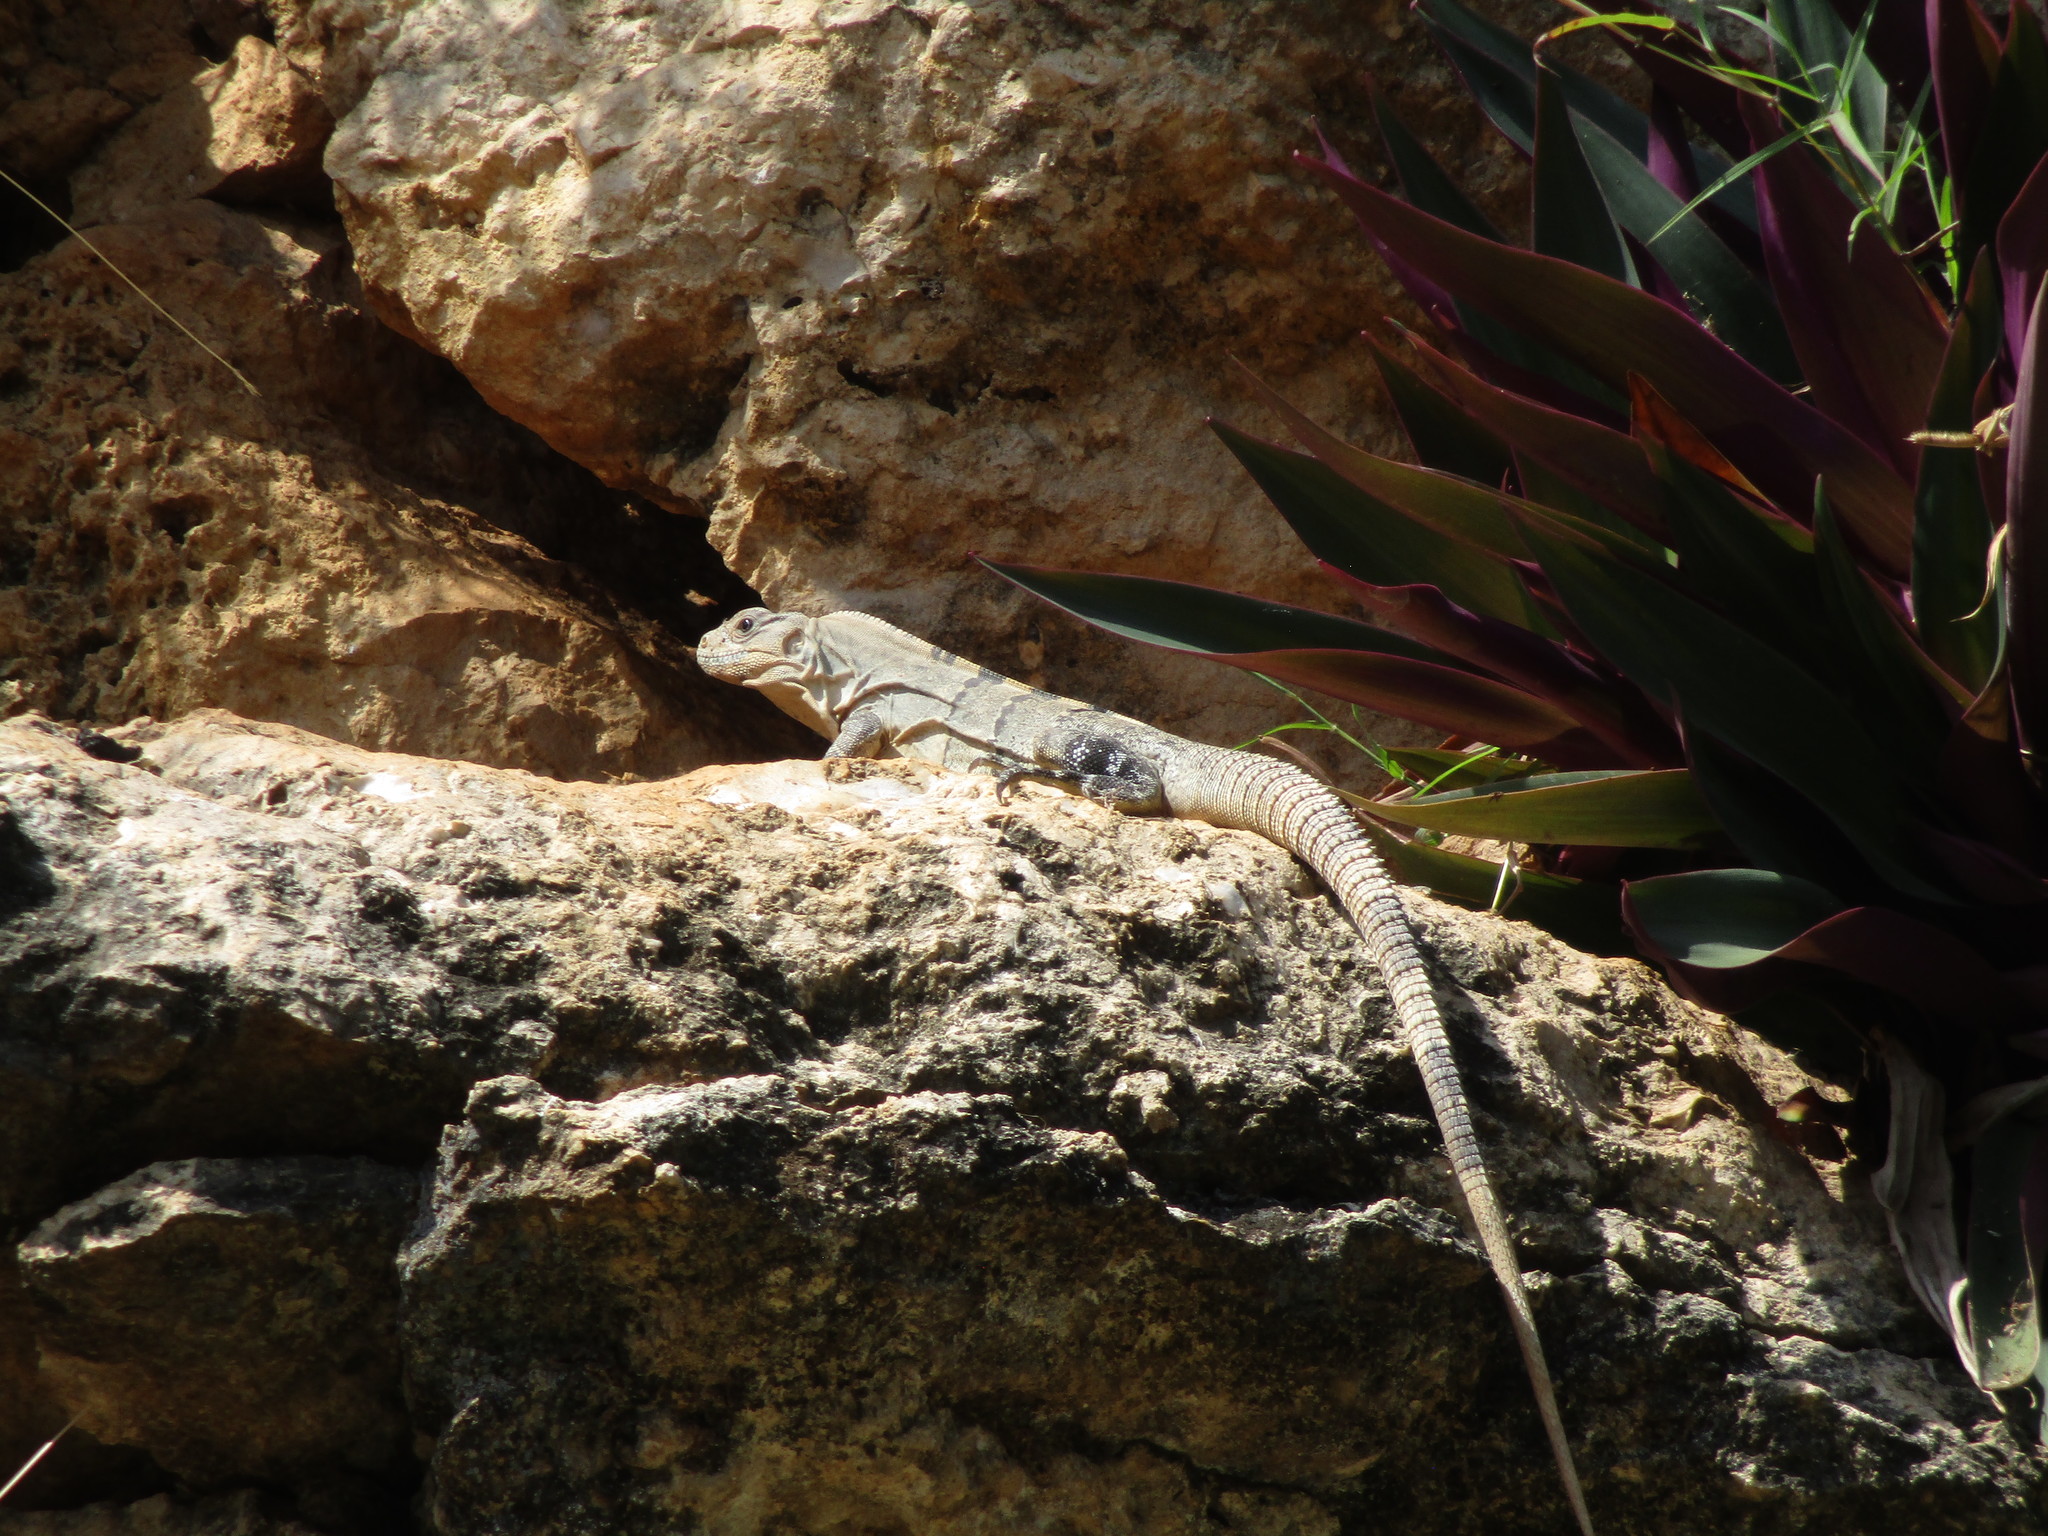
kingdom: Animalia
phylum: Chordata
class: Squamata
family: Iguanidae
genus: Ctenosaura
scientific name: Ctenosaura similis
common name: Black spiny-tailed iguana
